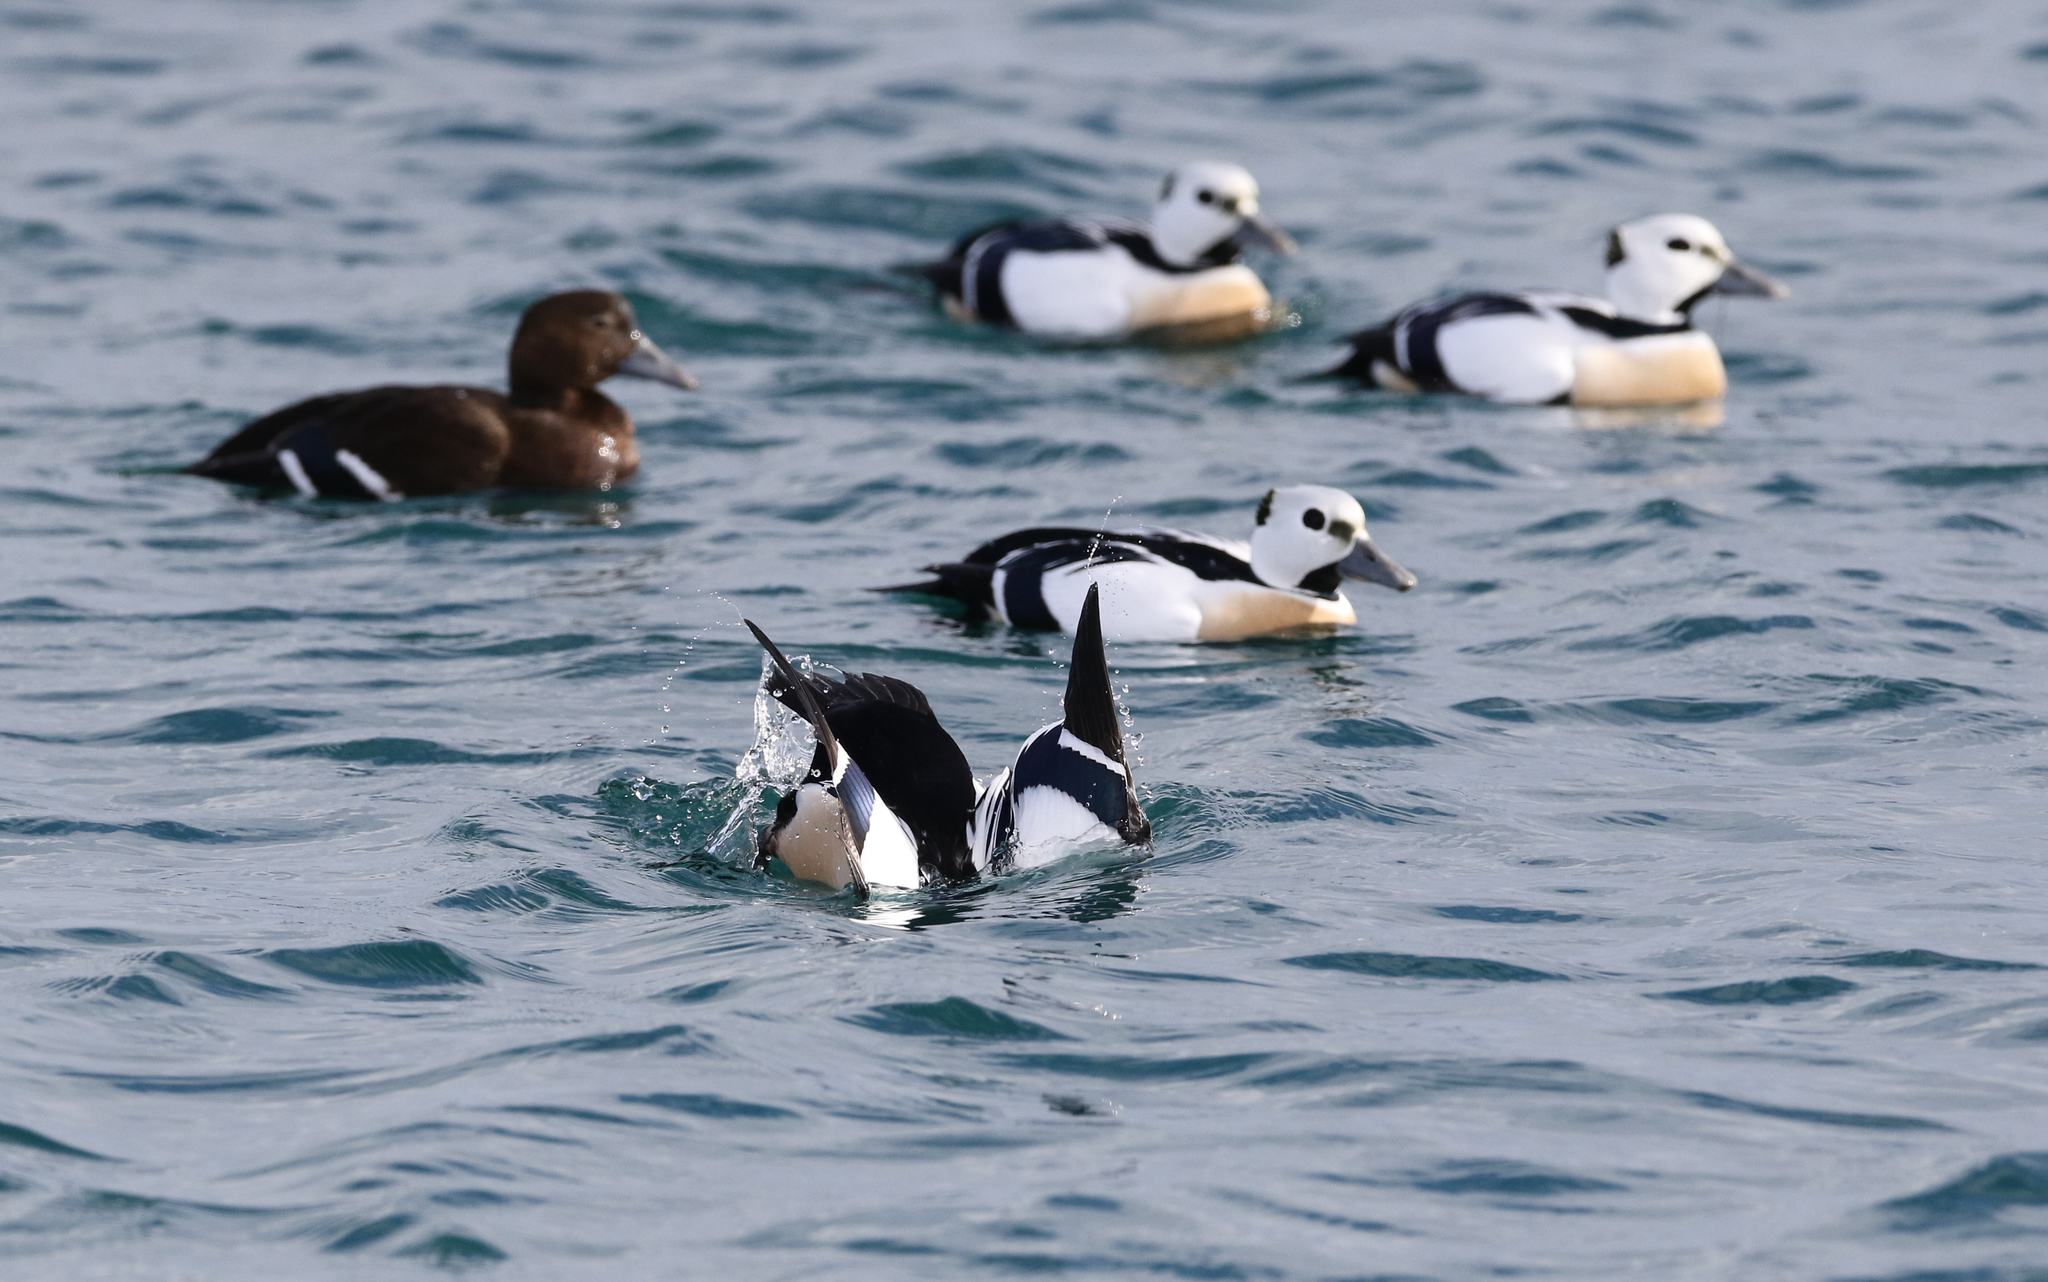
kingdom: Animalia
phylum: Chordata
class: Aves
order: Anseriformes
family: Anatidae
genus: Polysticta
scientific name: Polysticta stelleri
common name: Steller's eider
